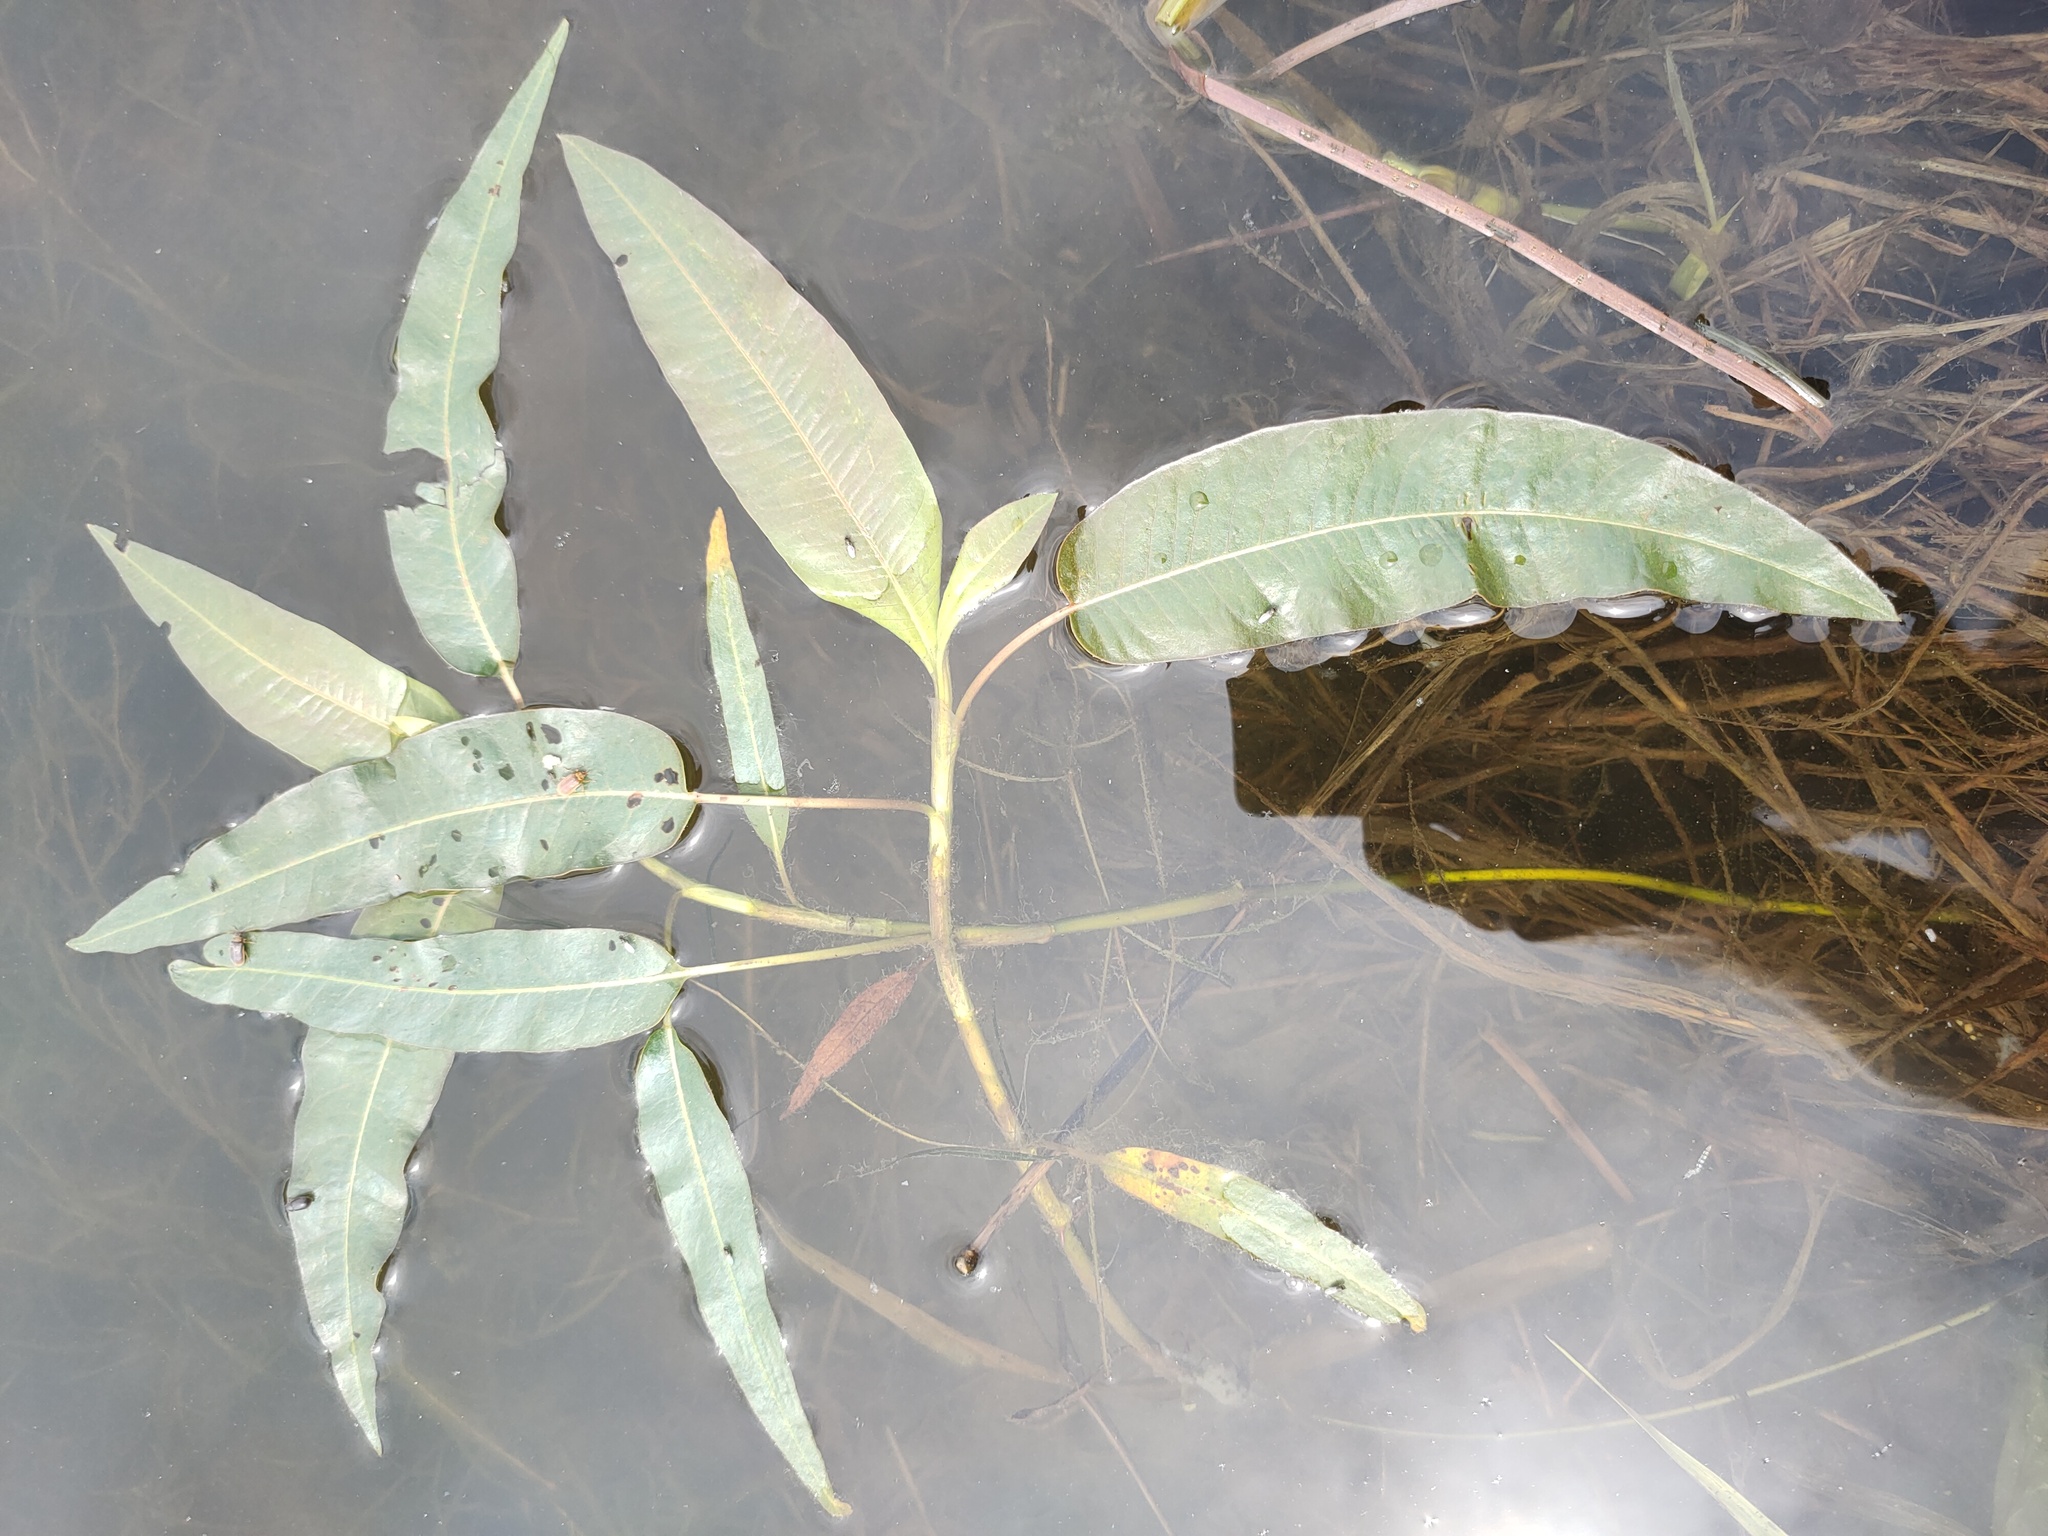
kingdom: Plantae
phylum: Tracheophyta
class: Magnoliopsida
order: Caryophyllales
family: Polygonaceae
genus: Persicaria
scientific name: Persicaria amphibia
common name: Amphibious bistort
